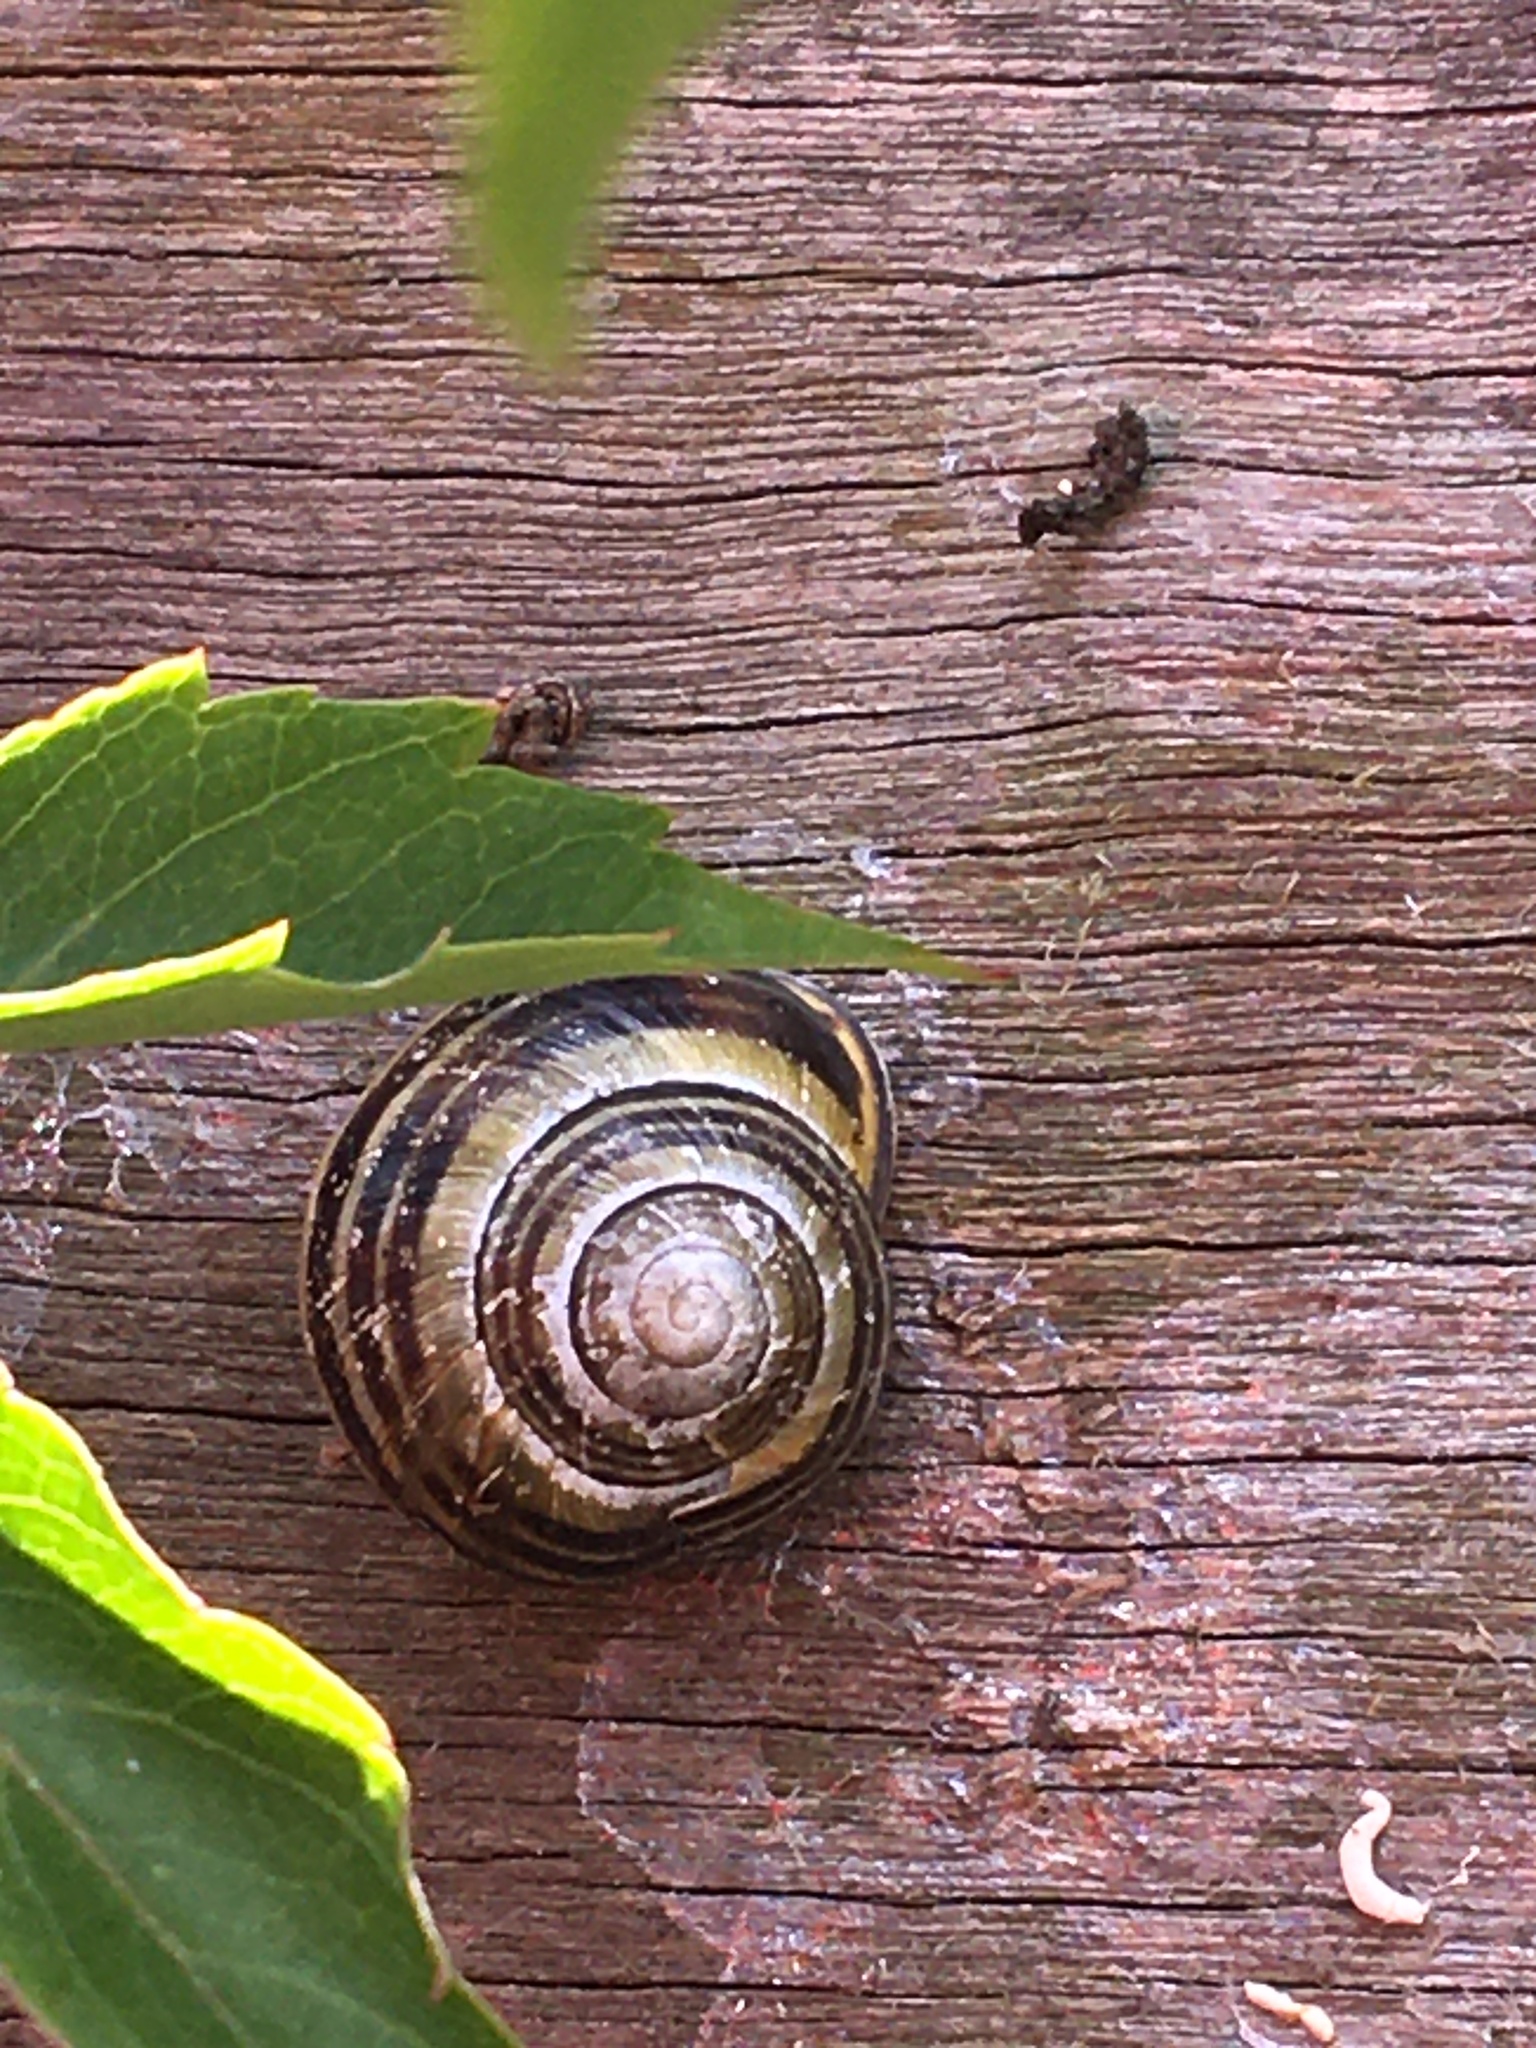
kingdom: Animalia
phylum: Mollusca
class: Gastropoda
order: Stylommatophora
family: Helicidae
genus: Cepaea
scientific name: Cepaea nemoralis
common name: Grovesnail
